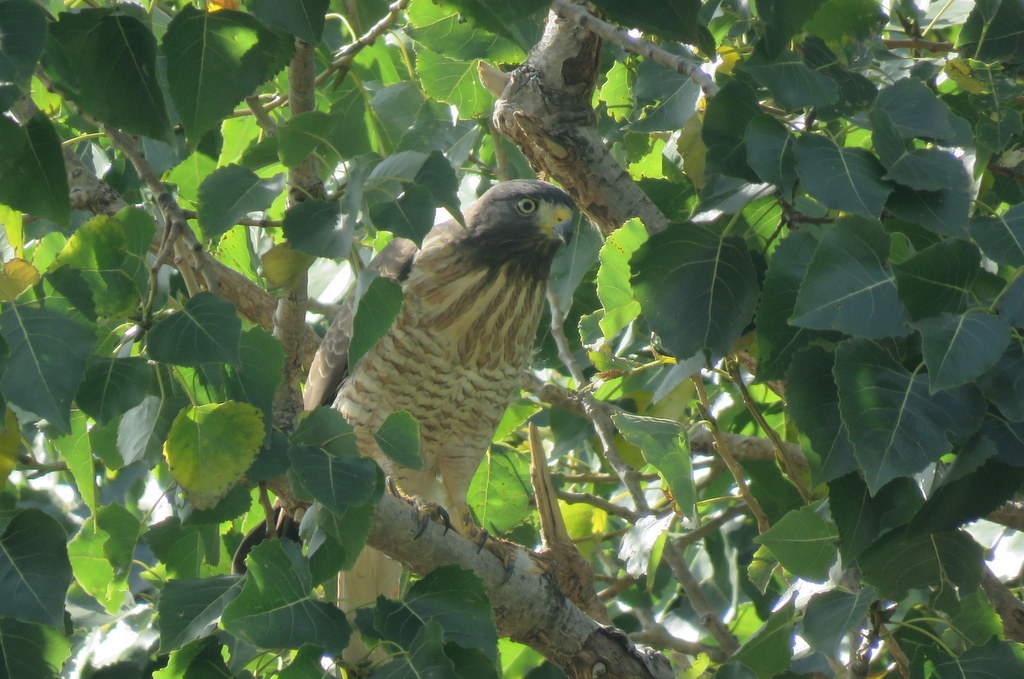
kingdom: Animalia
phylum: Chordata
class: Aves
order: Accipitriformes
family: Accipitridae
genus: Rupornis
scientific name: Rupornis magnirostris
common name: Roadside hawk
